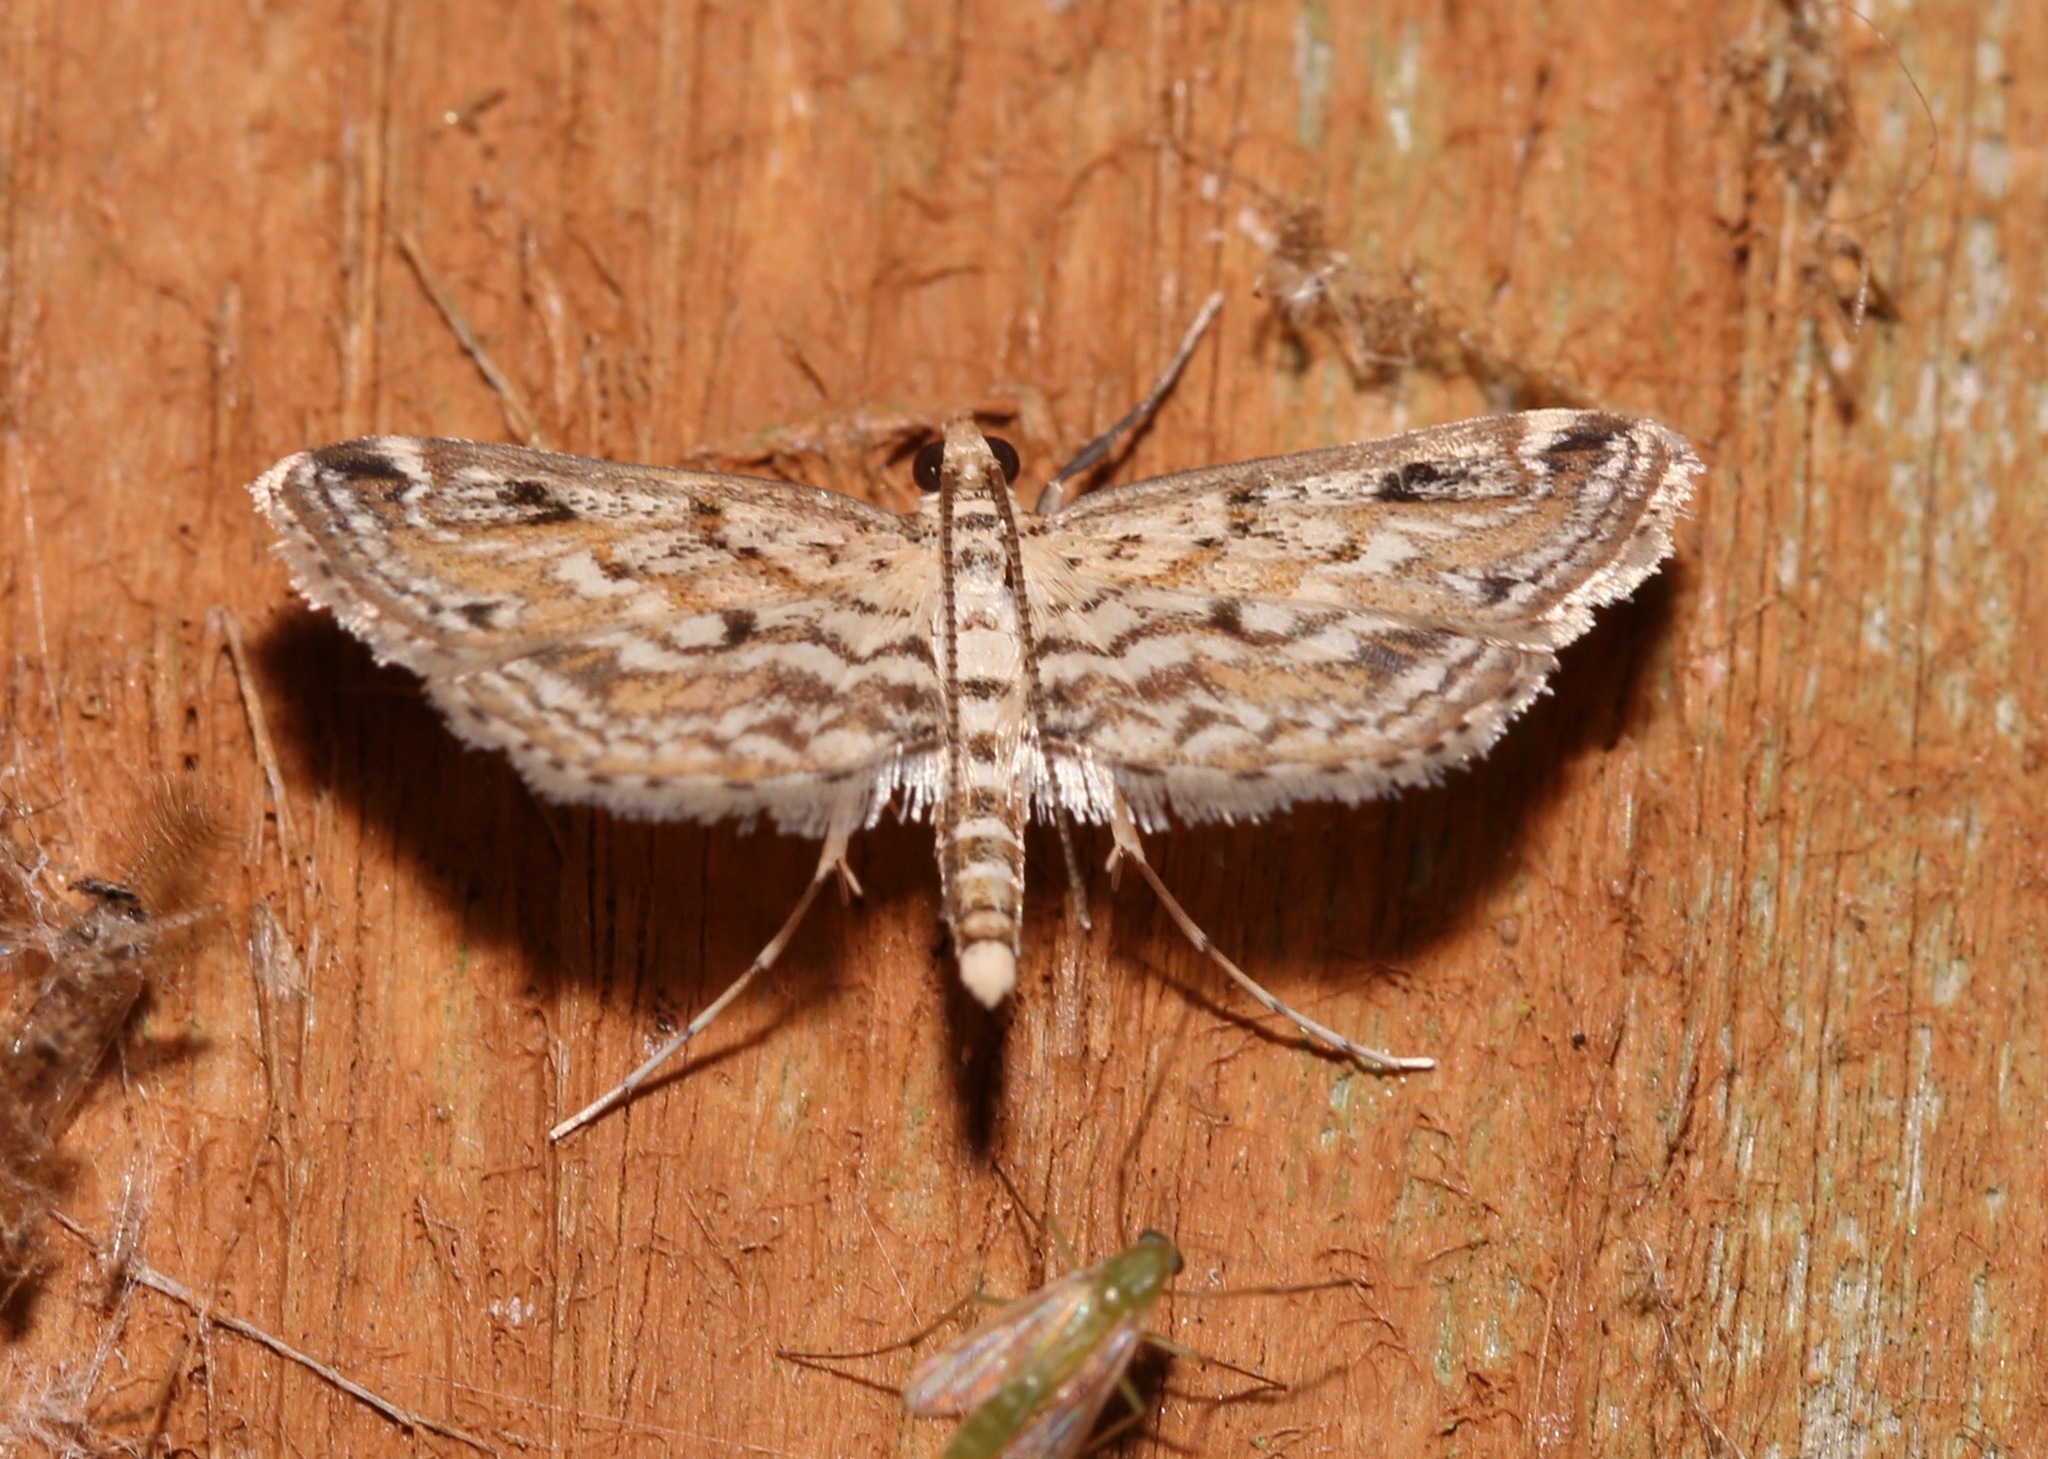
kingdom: Animalia
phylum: Arthropoda
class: Insecta
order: Lepidoptera
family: Crambidae
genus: Parapoynx
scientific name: Parapoynx allionealis
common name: Bladderwort casemaker
